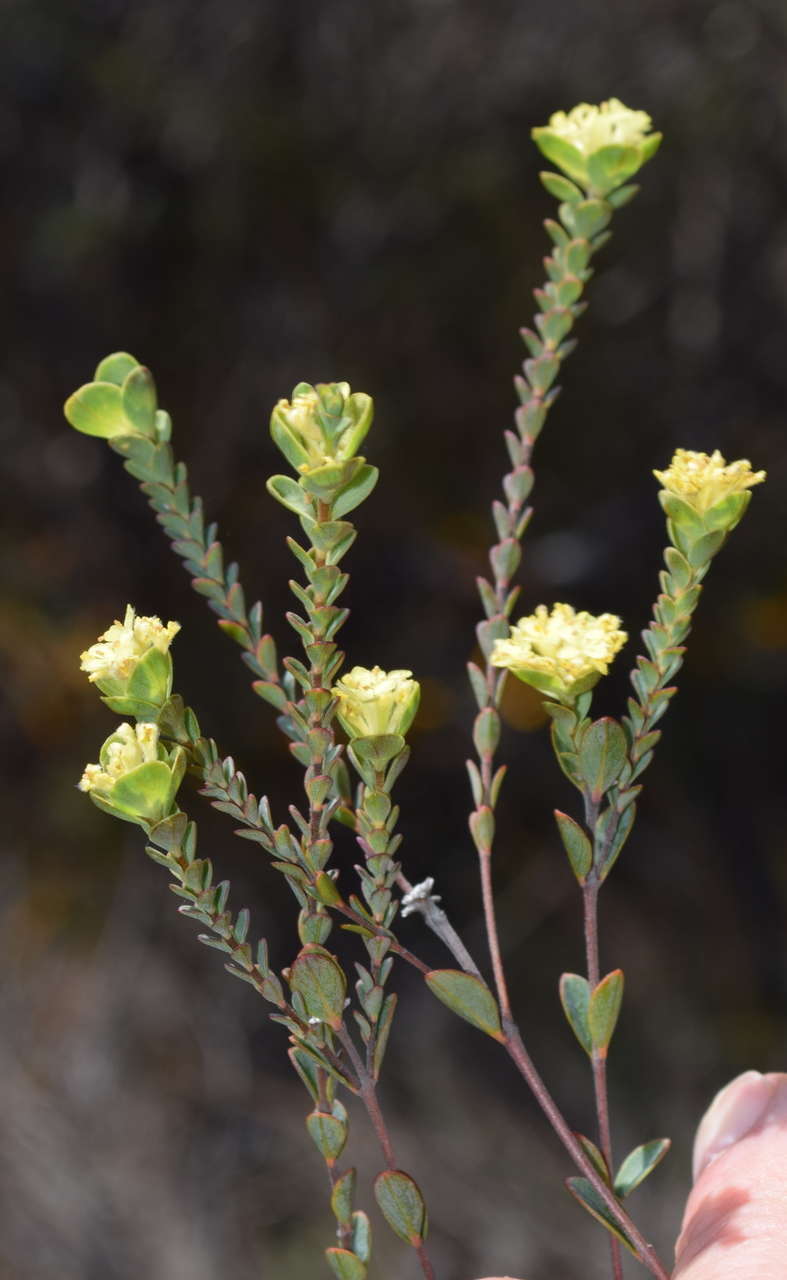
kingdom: Plantae
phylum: Tracheophyta
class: Magnoliopsida
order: Malvales
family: Thymelaeaceae
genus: Pimelea
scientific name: Pimelea flava
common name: Yellow riceflower
